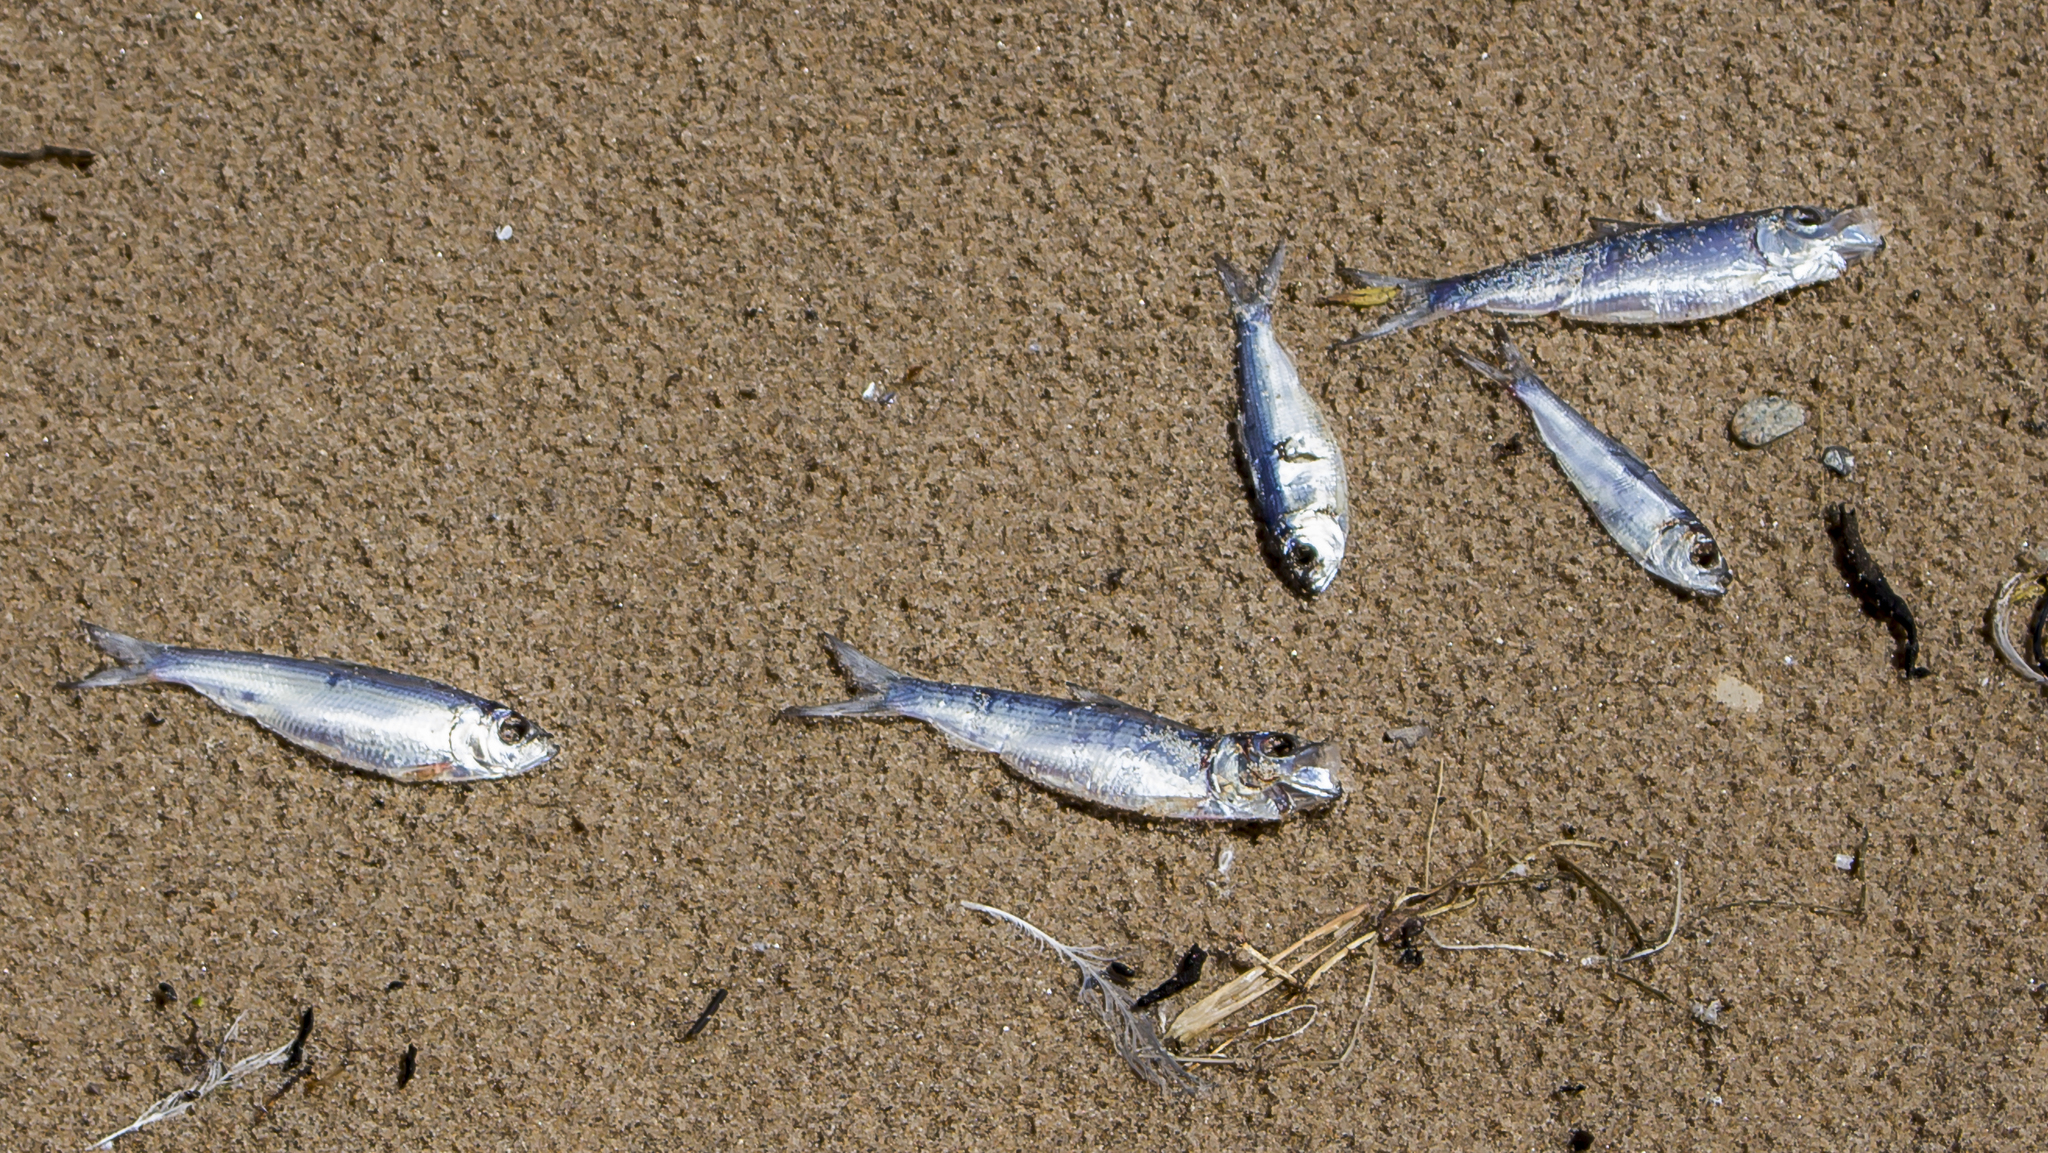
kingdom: Animalia
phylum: Chordata
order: Clupeiformes
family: Clupeidae
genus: Alosa
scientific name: Alosa pseudoharengus
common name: Alewife
